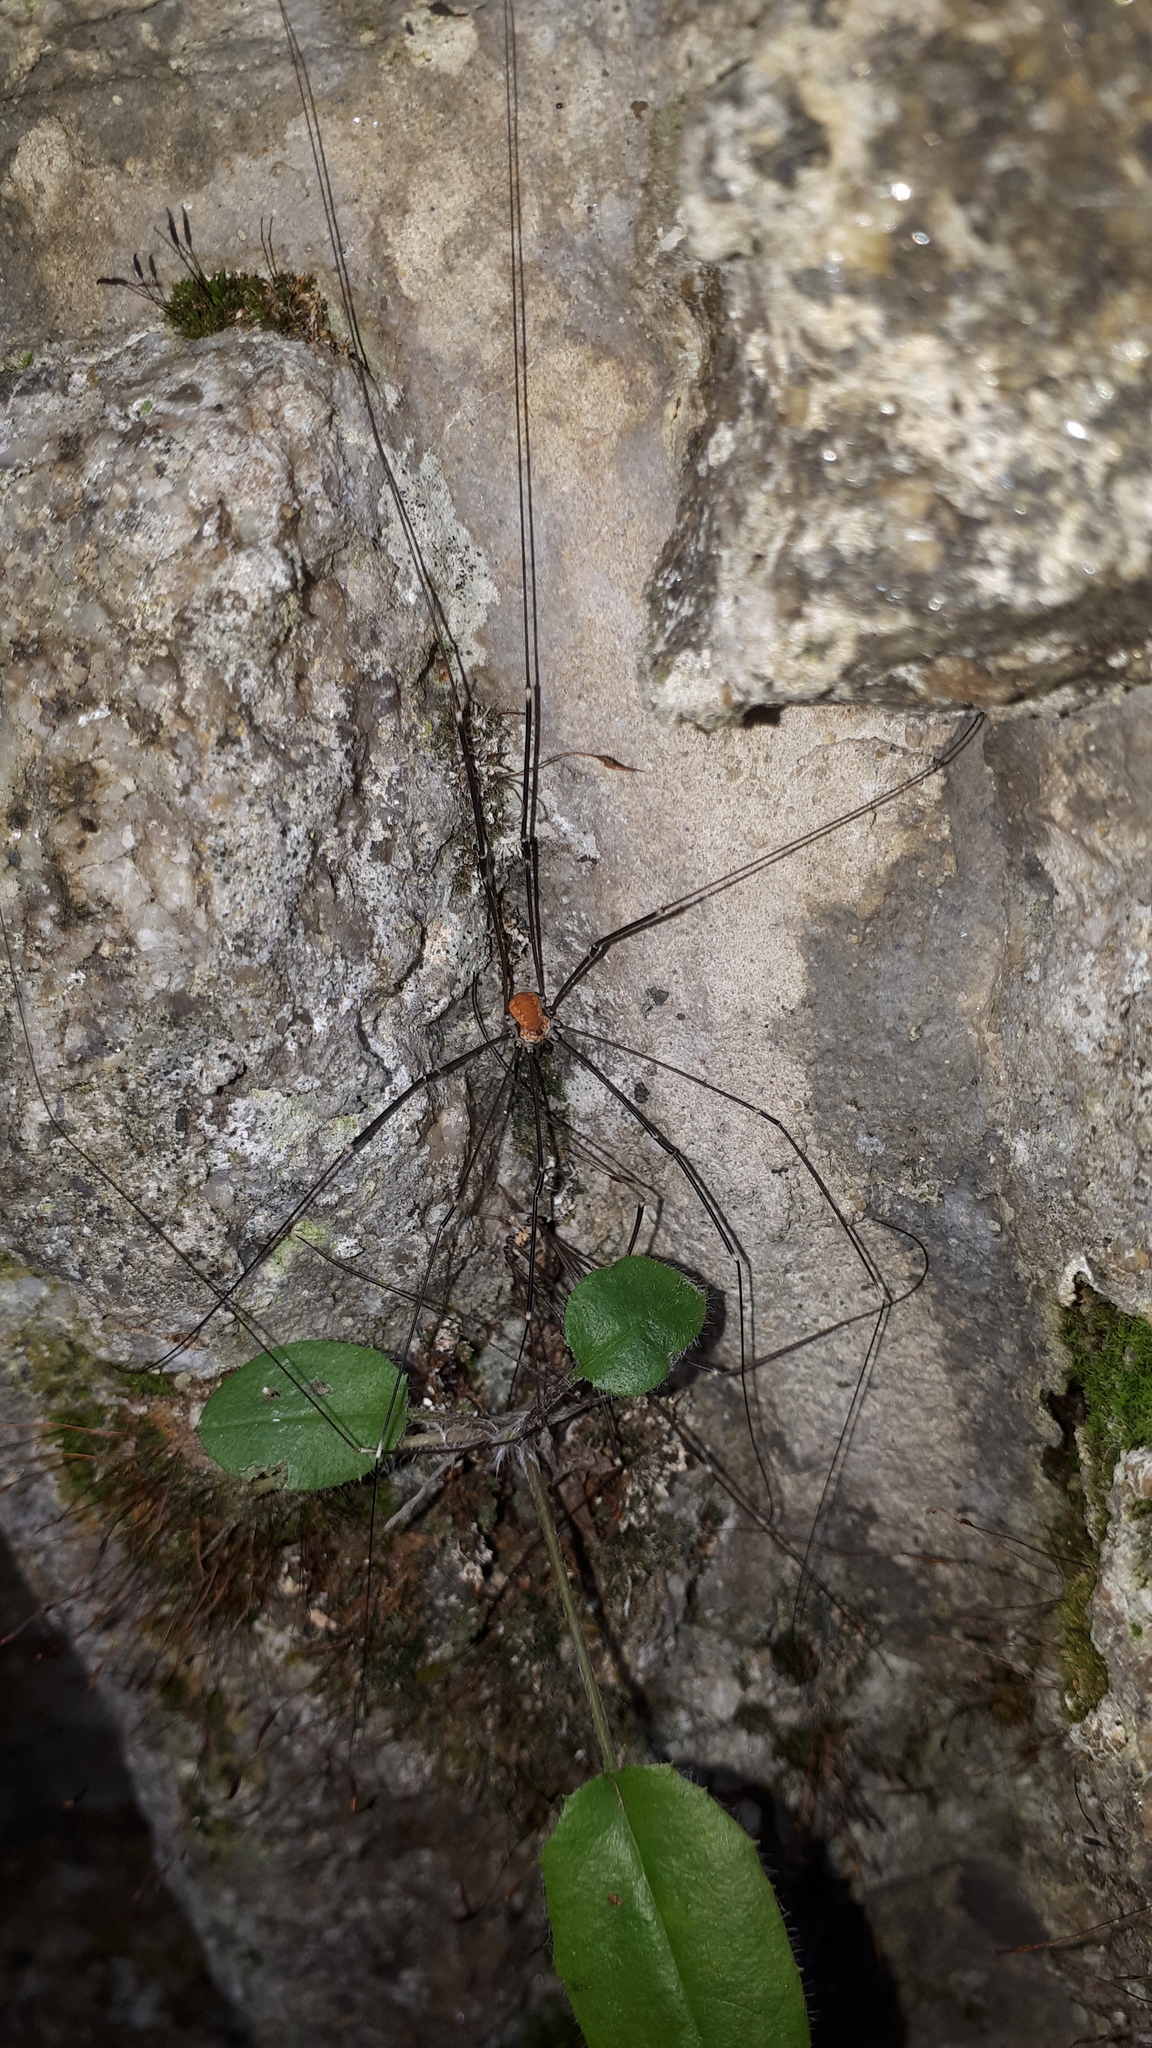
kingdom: Animalia
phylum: Arthropoda
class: Arachnida
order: Opiliones
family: Sclerosomatidae
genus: Leiobunum
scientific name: Leiobunum limbatum
